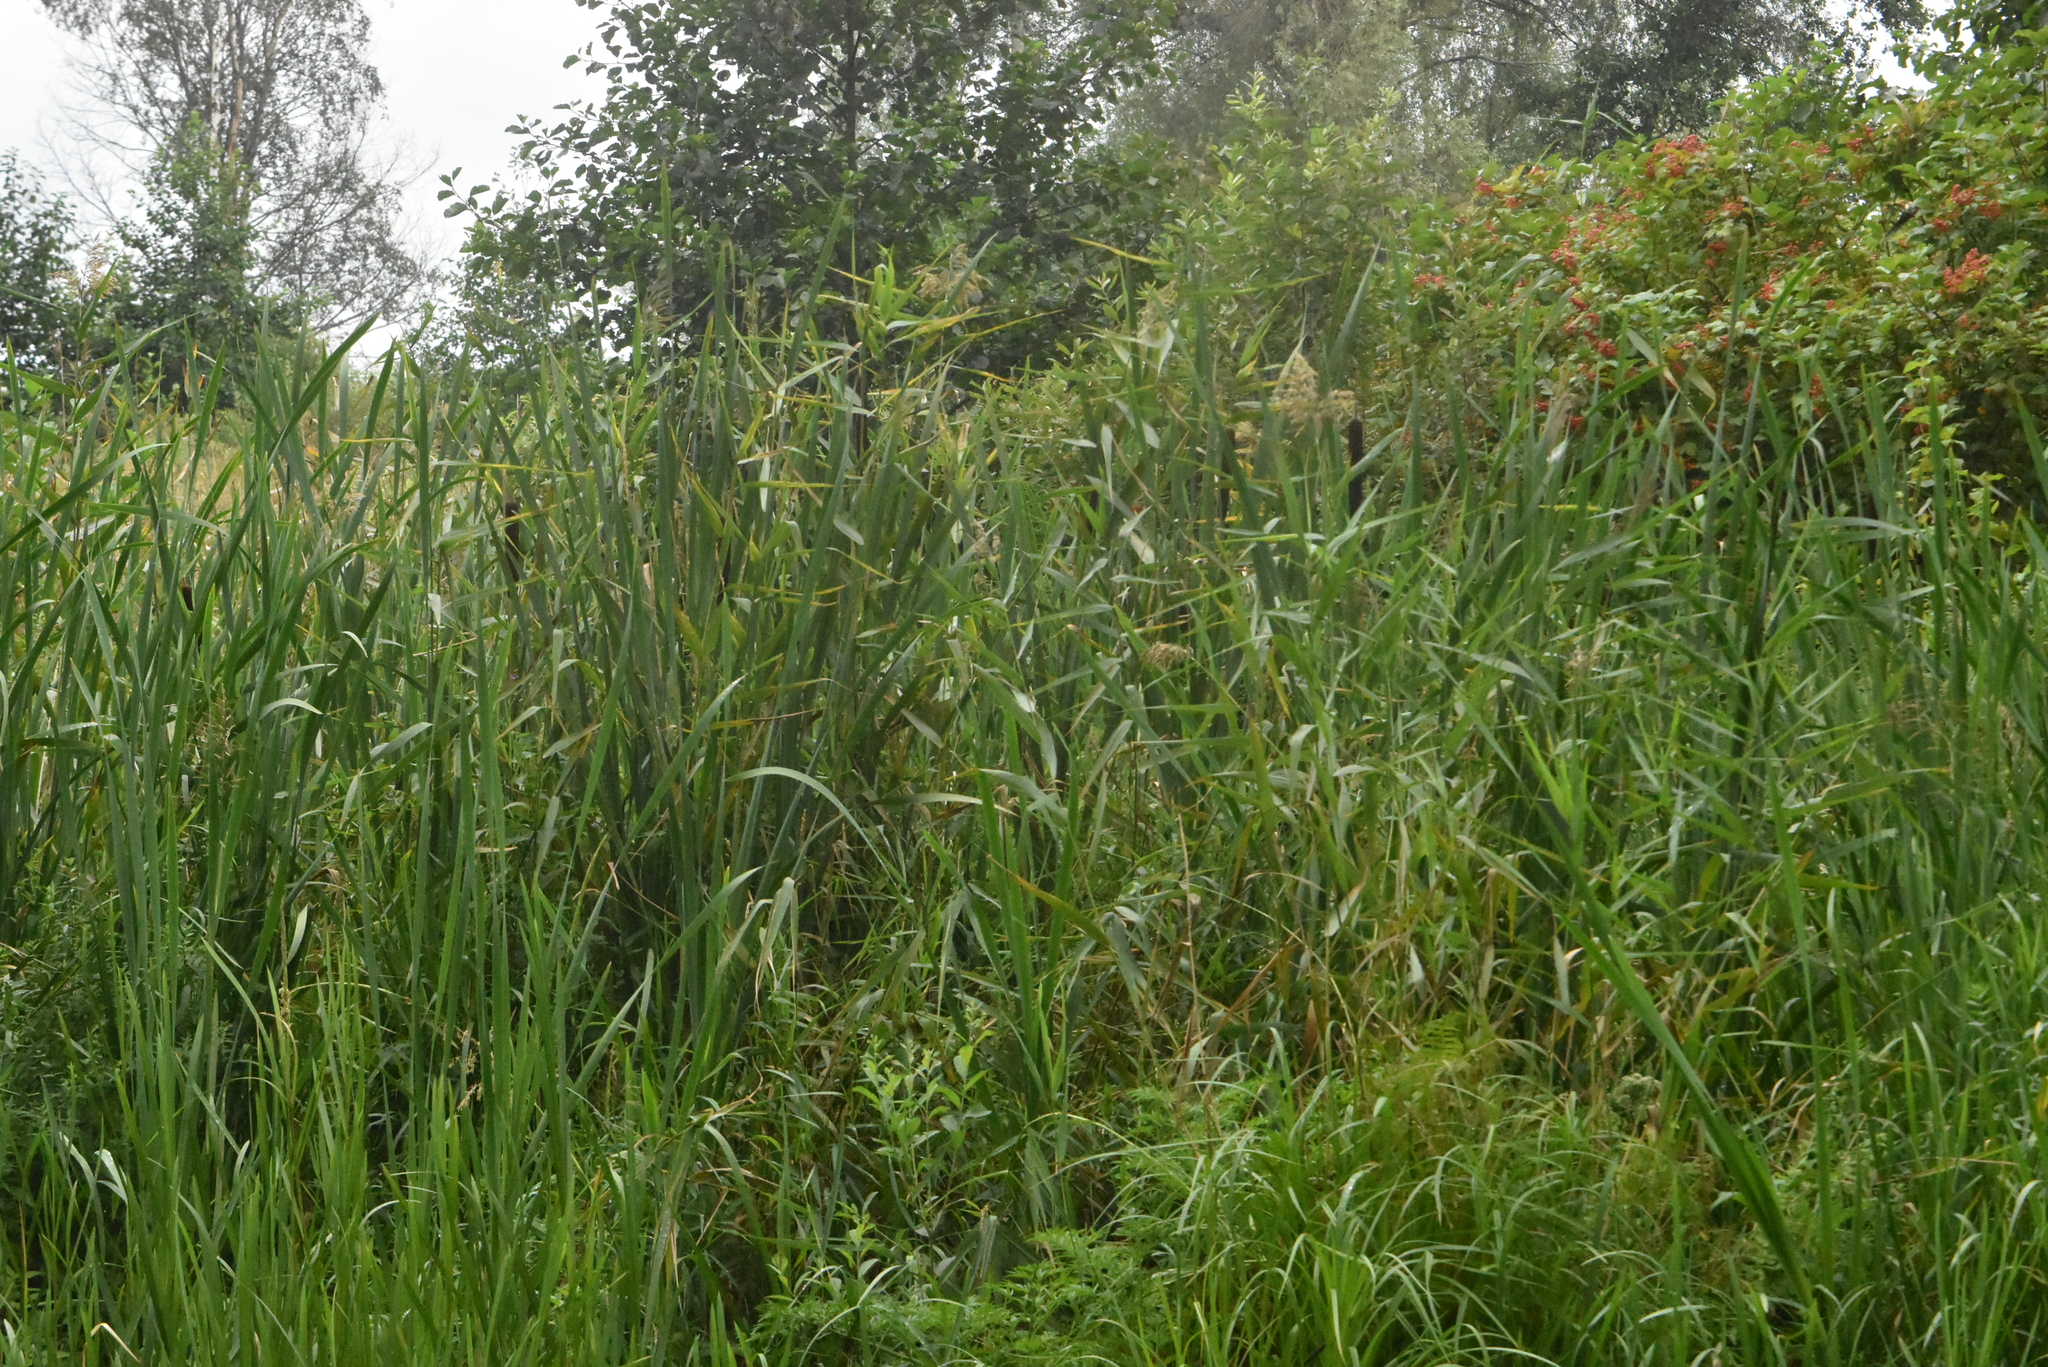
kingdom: Plantae
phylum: Tracheophyta
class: Liliopsida
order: Poales
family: Typhaceae
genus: Typha
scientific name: Typha latifolia
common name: Broadleaf cattail
